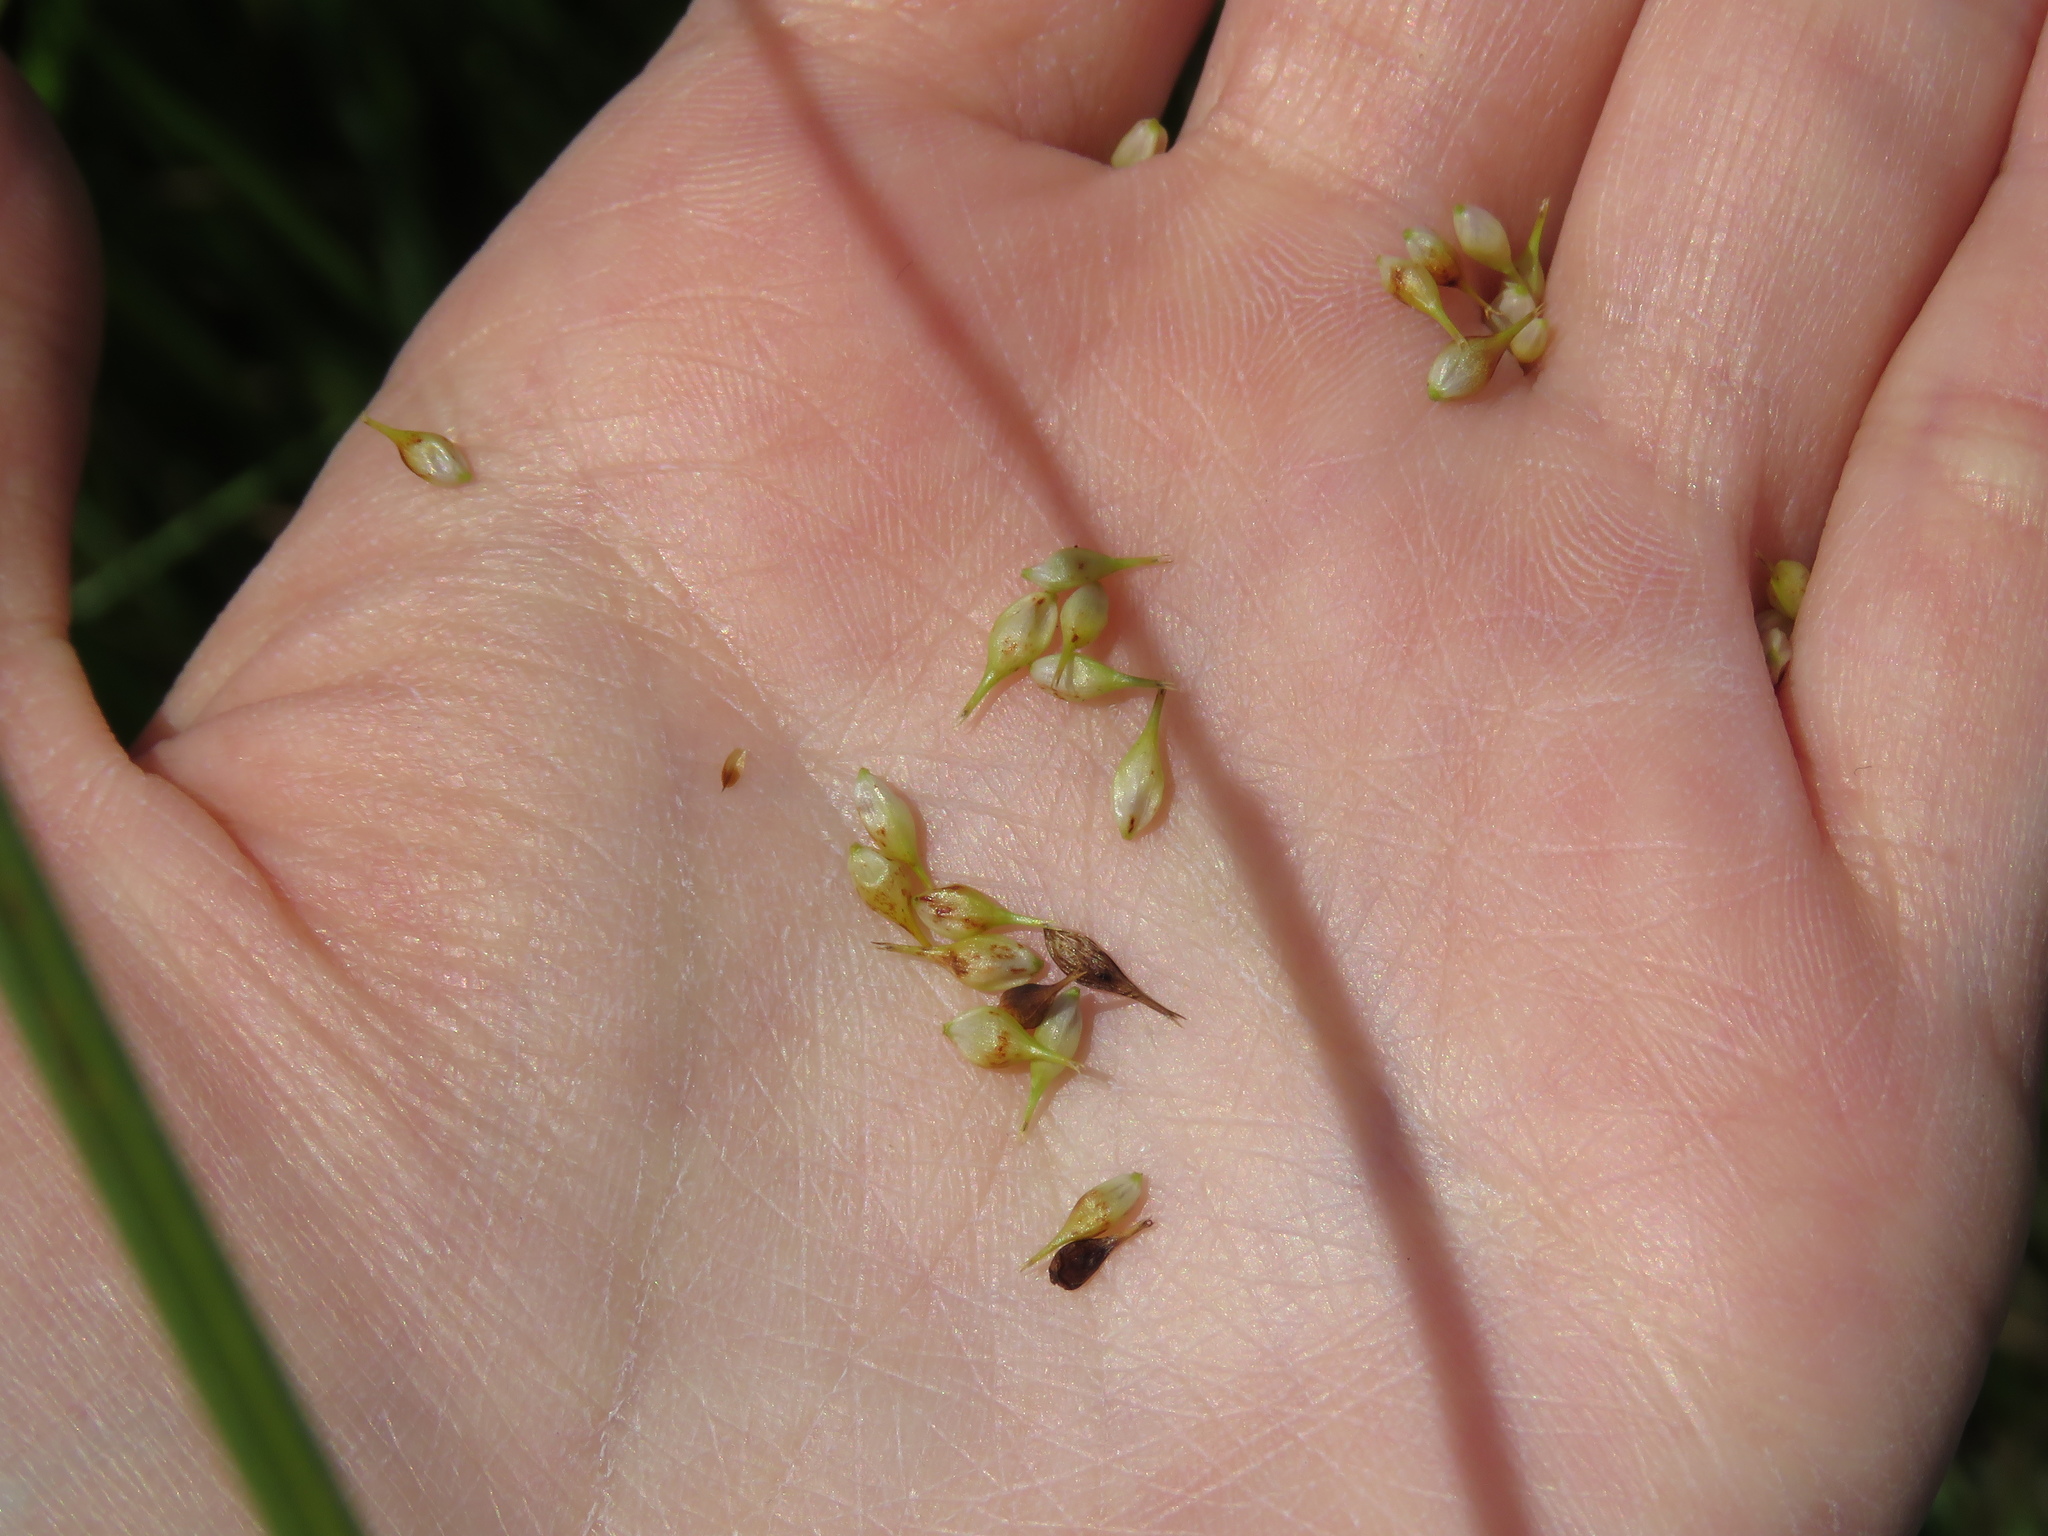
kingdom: Plantae
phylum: Tracheophyta
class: Liliopsida
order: Poales
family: Cyperaceae
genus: Carex
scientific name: Carex hystericina
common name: Bottlebrush sedge
